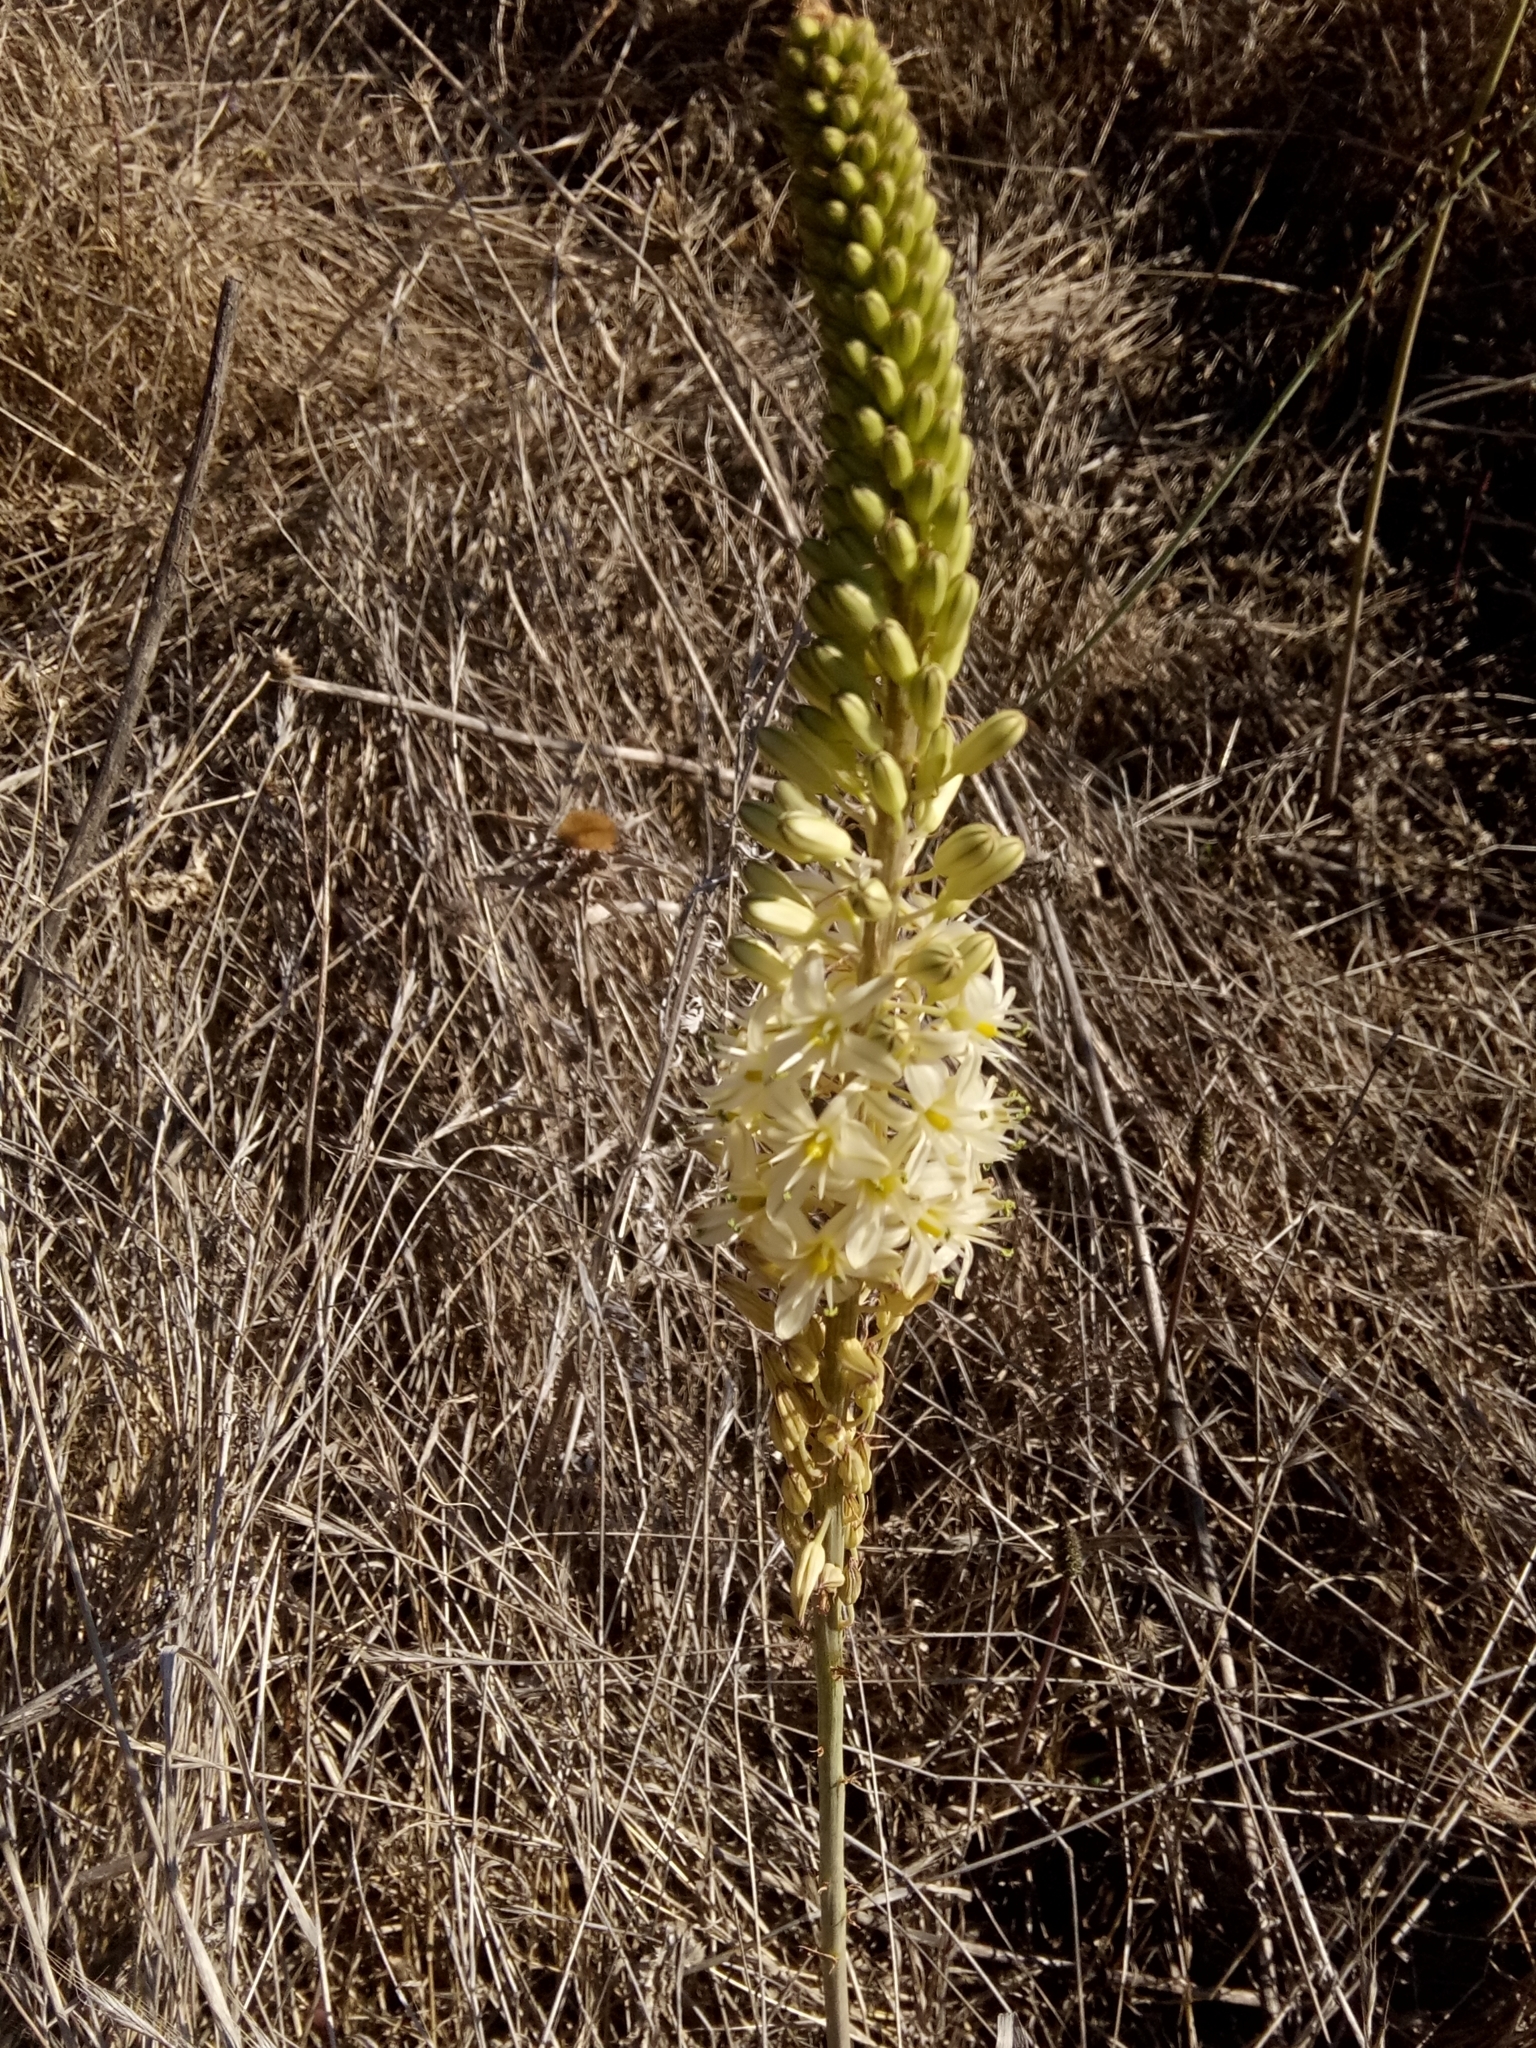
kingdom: Plantae
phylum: Tracheophyta
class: Liliopsida
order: Asparagales
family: Asparagaceae
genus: Drimia
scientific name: Drimia anthericoides
